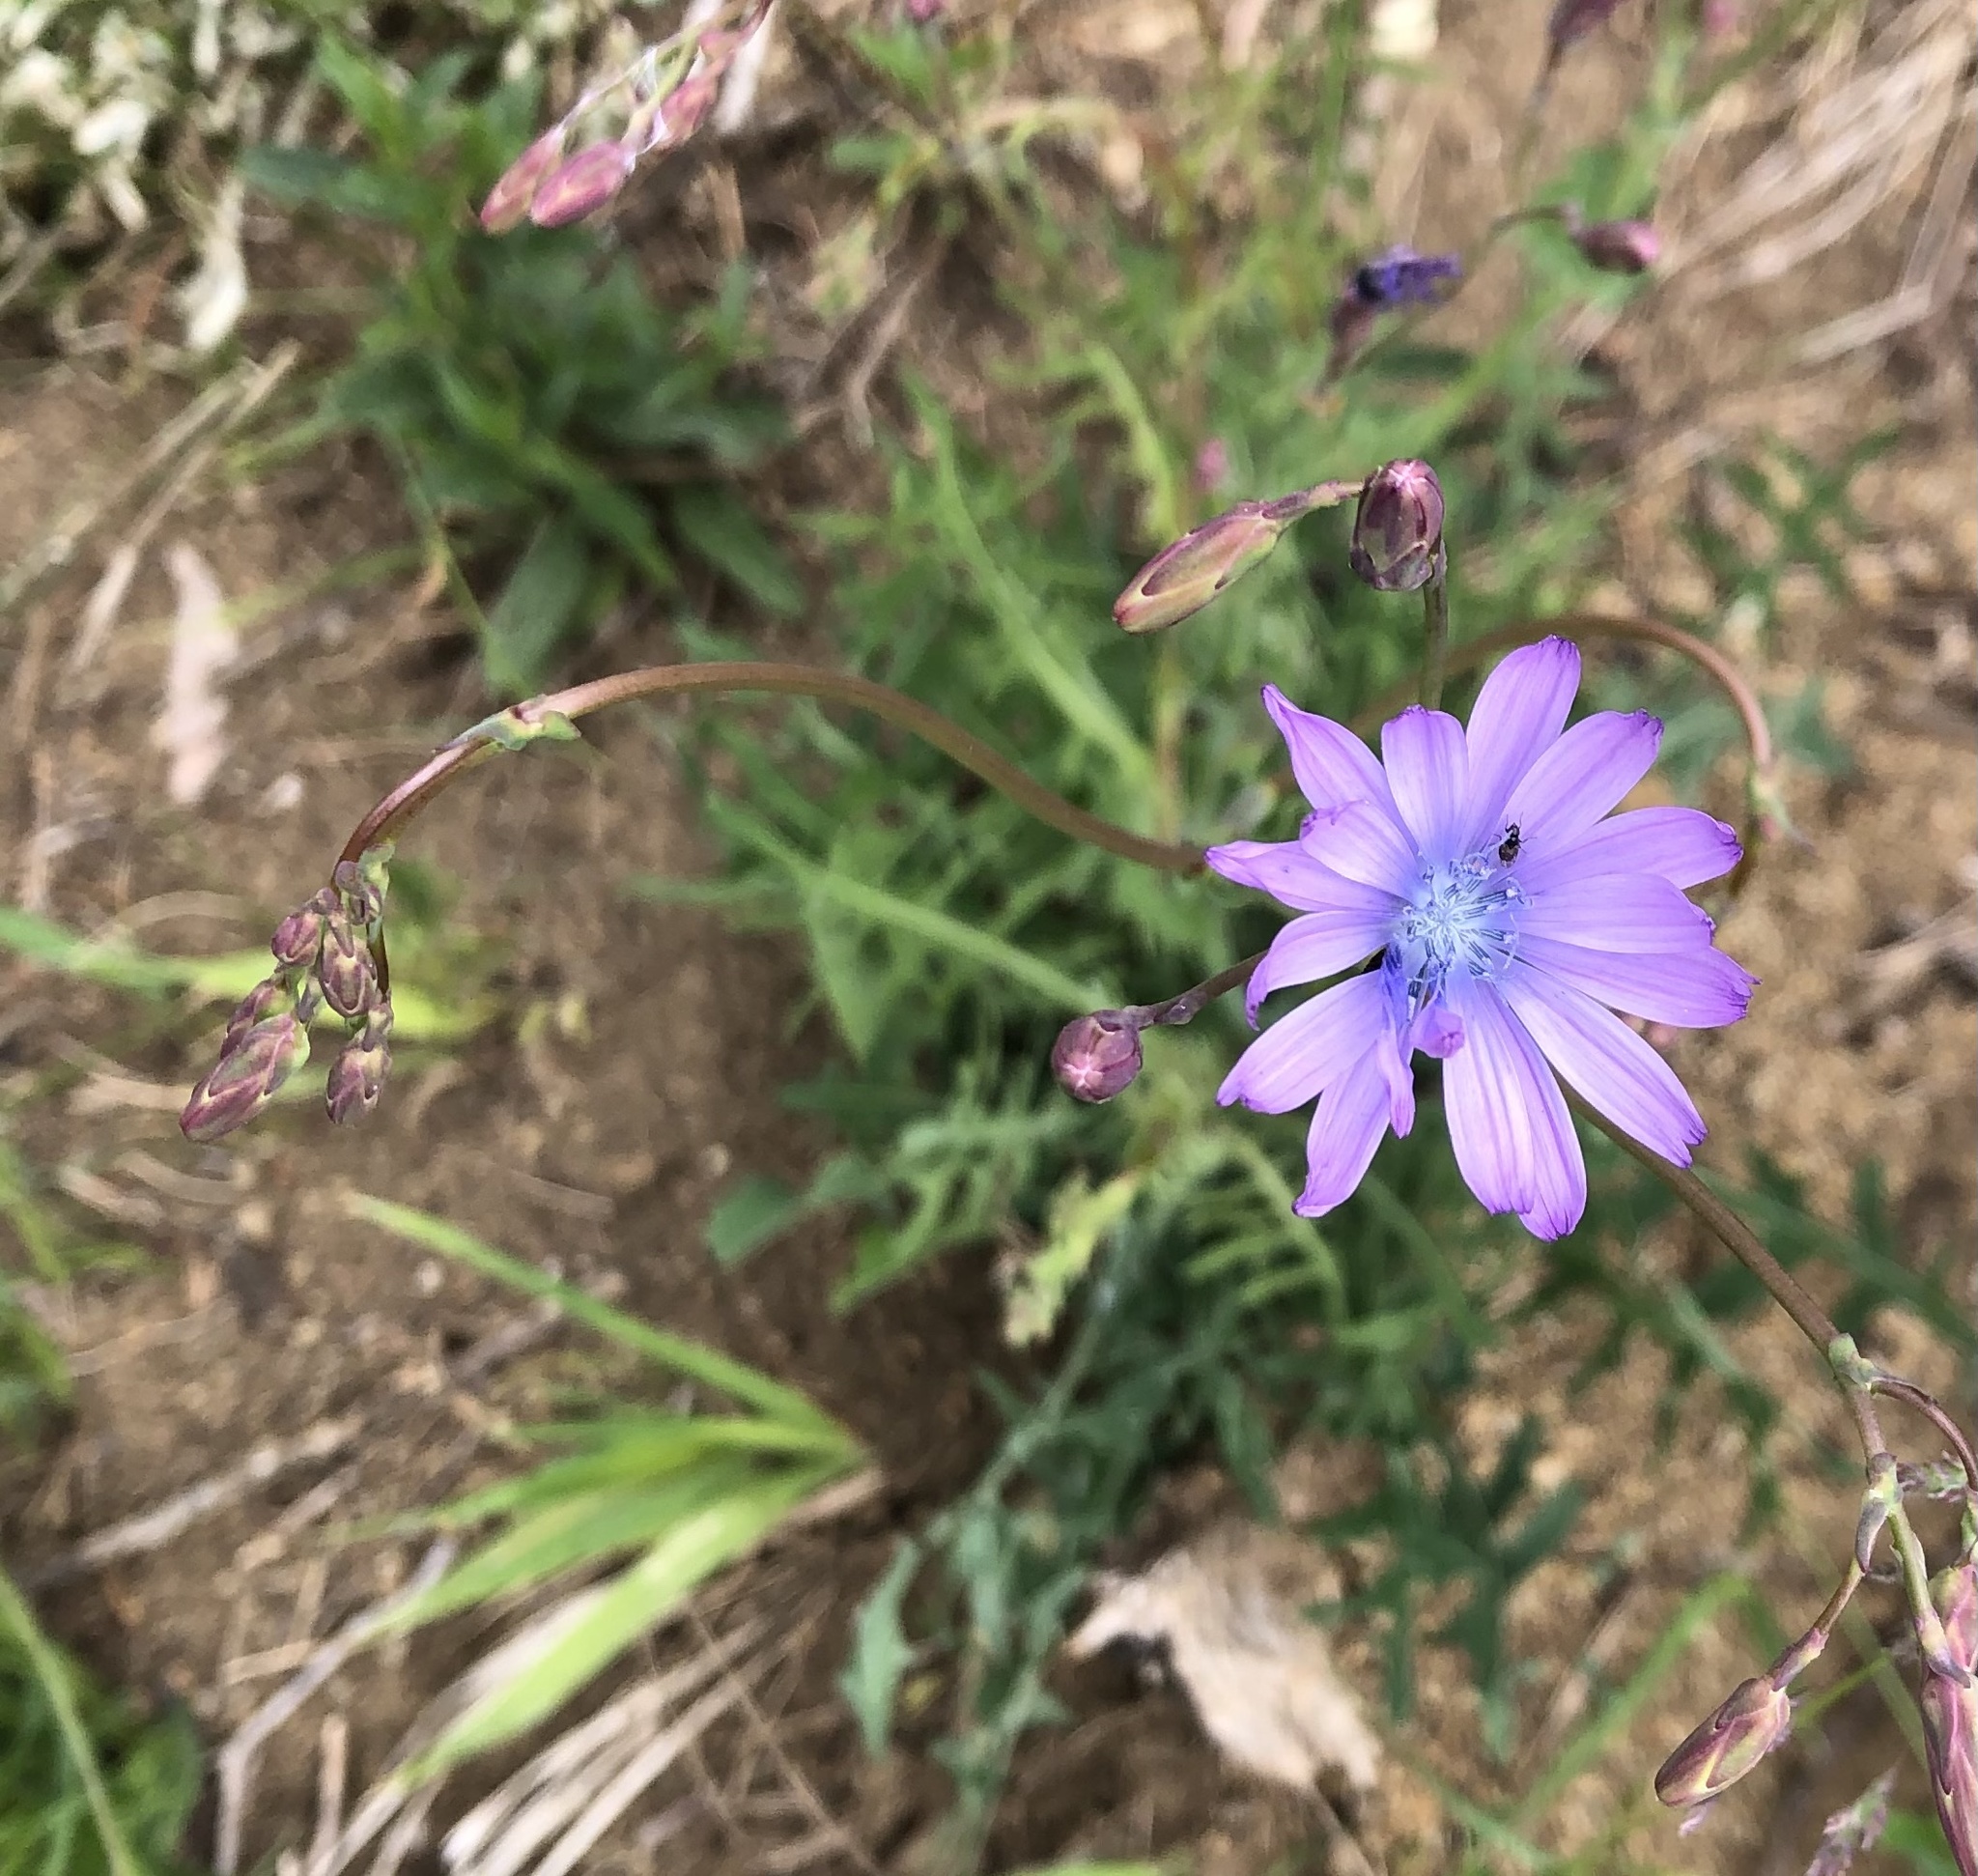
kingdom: Plantae
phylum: Tracheophyta
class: Magnoliopsida
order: Asterales
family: Asteraceae
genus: Lactuca
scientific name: Lactuca perennis
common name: Mountain lettuce
